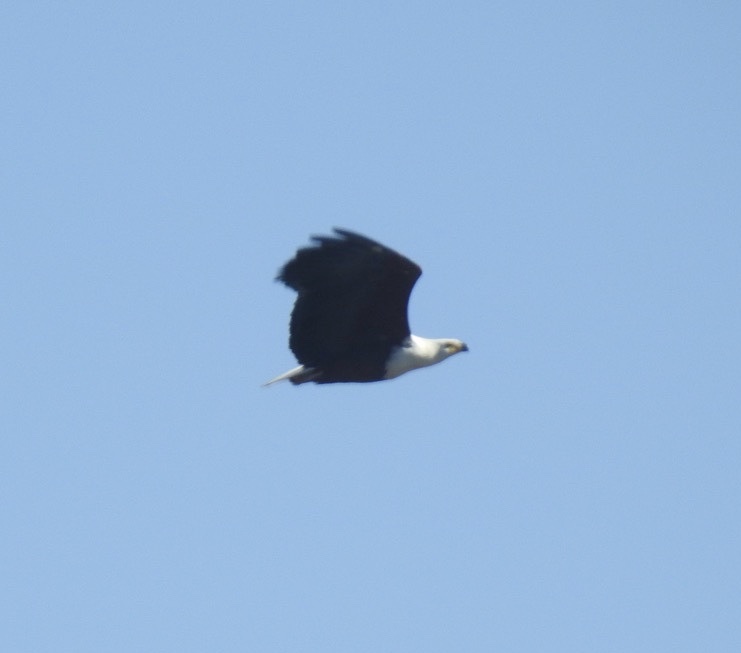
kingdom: Animalia
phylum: Chordata
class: Aves
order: Accipitriformes
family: Accipitridae
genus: Haliaeetus
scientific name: Haliaeetus vocifer
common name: African fish eagle
